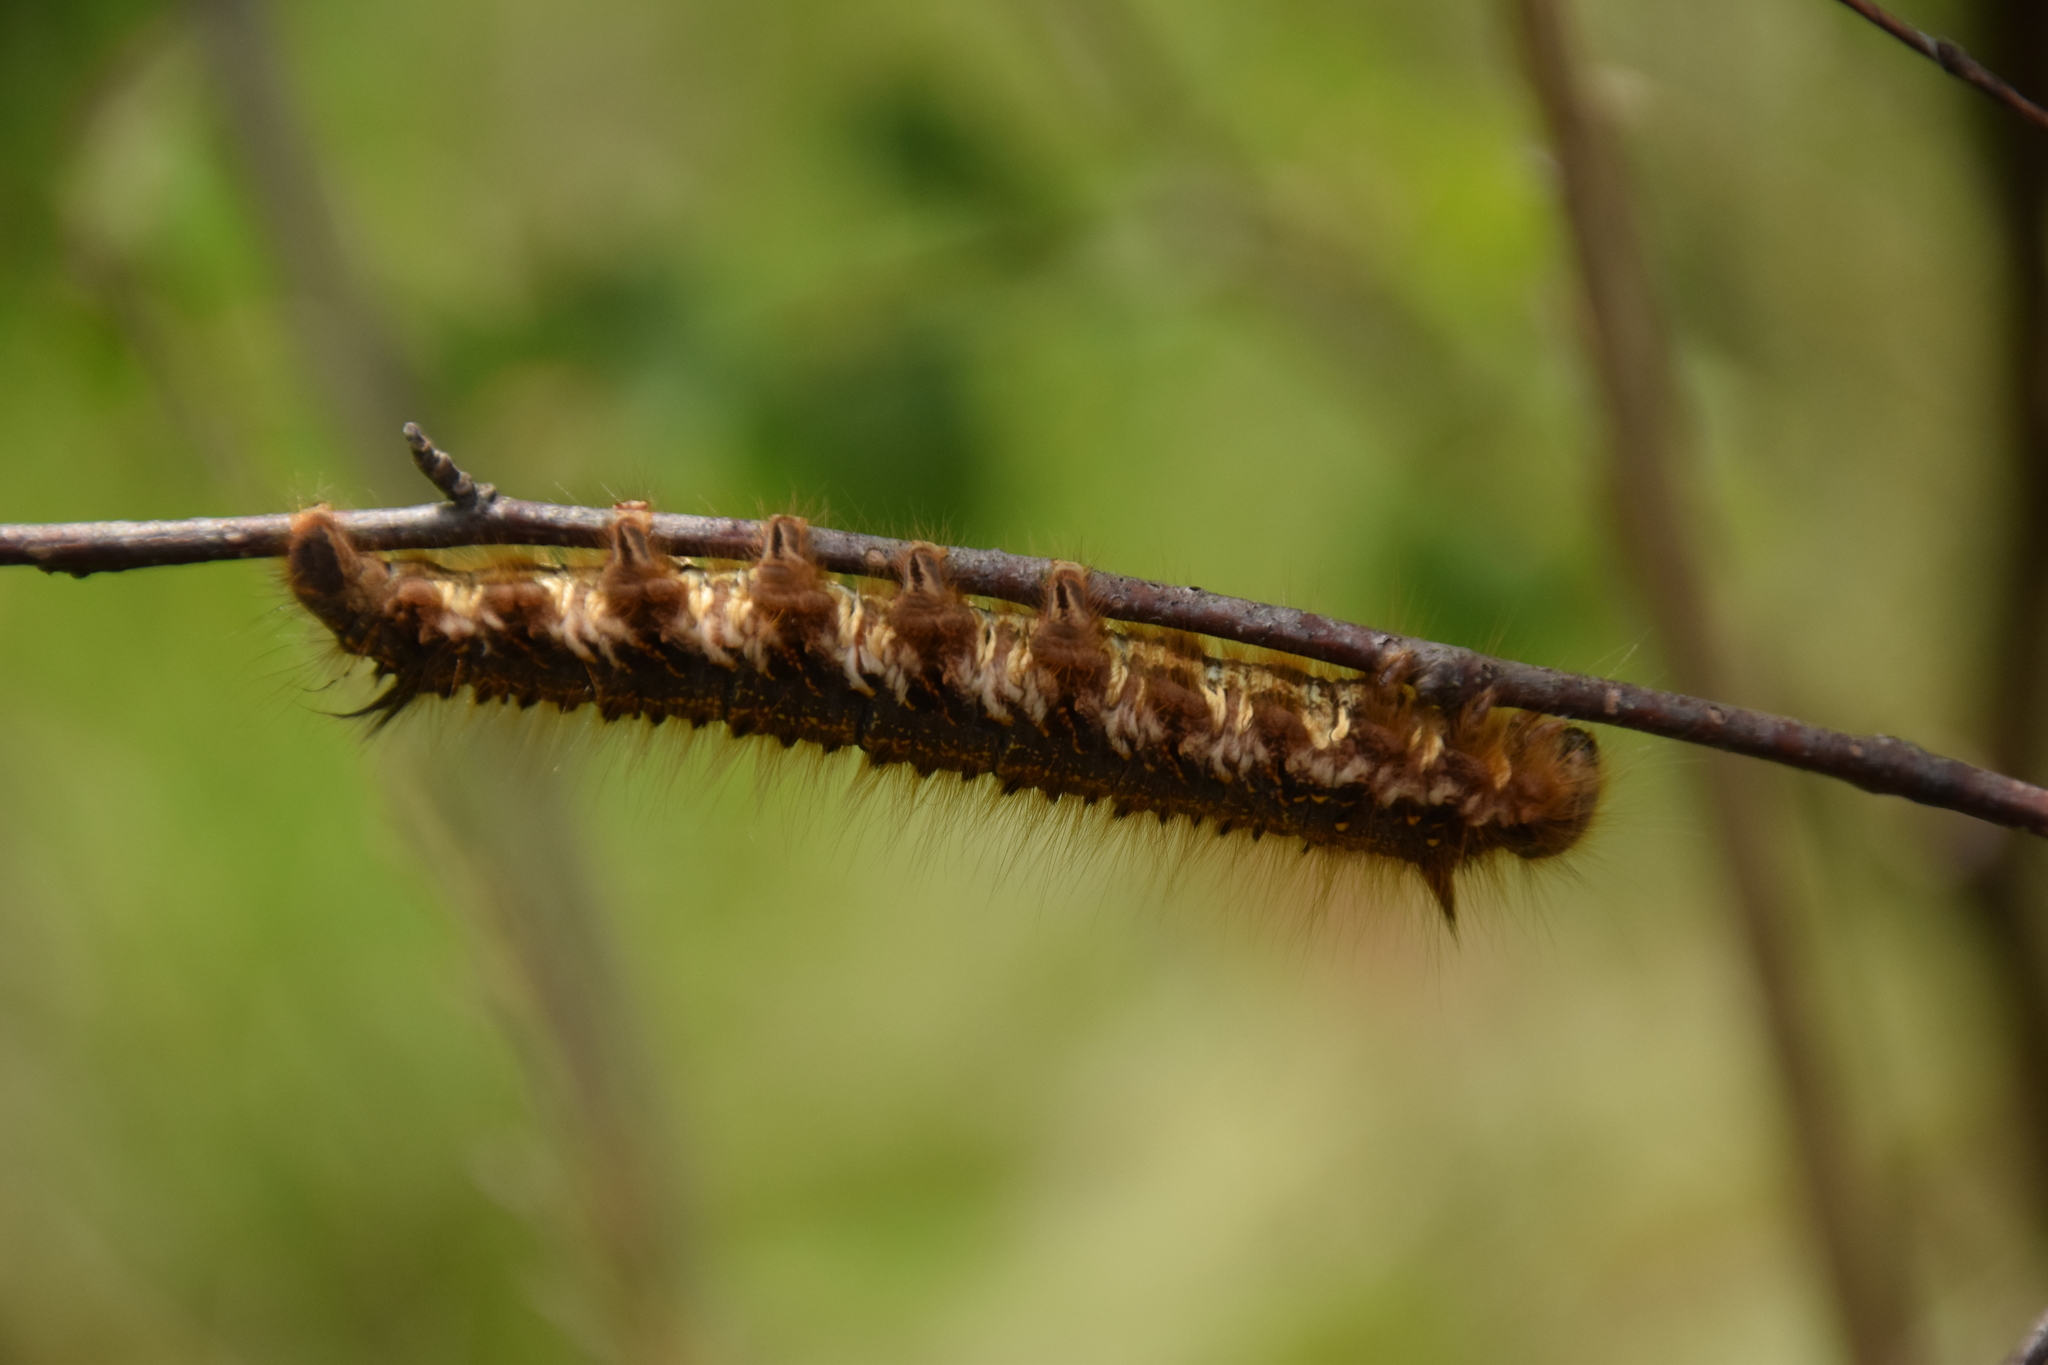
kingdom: Animalia
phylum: Arthropoda
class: Insecta
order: Lepidoptera
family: Lasiocampidae
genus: Euthrix
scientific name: Euthrix potatoria
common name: Drinker
